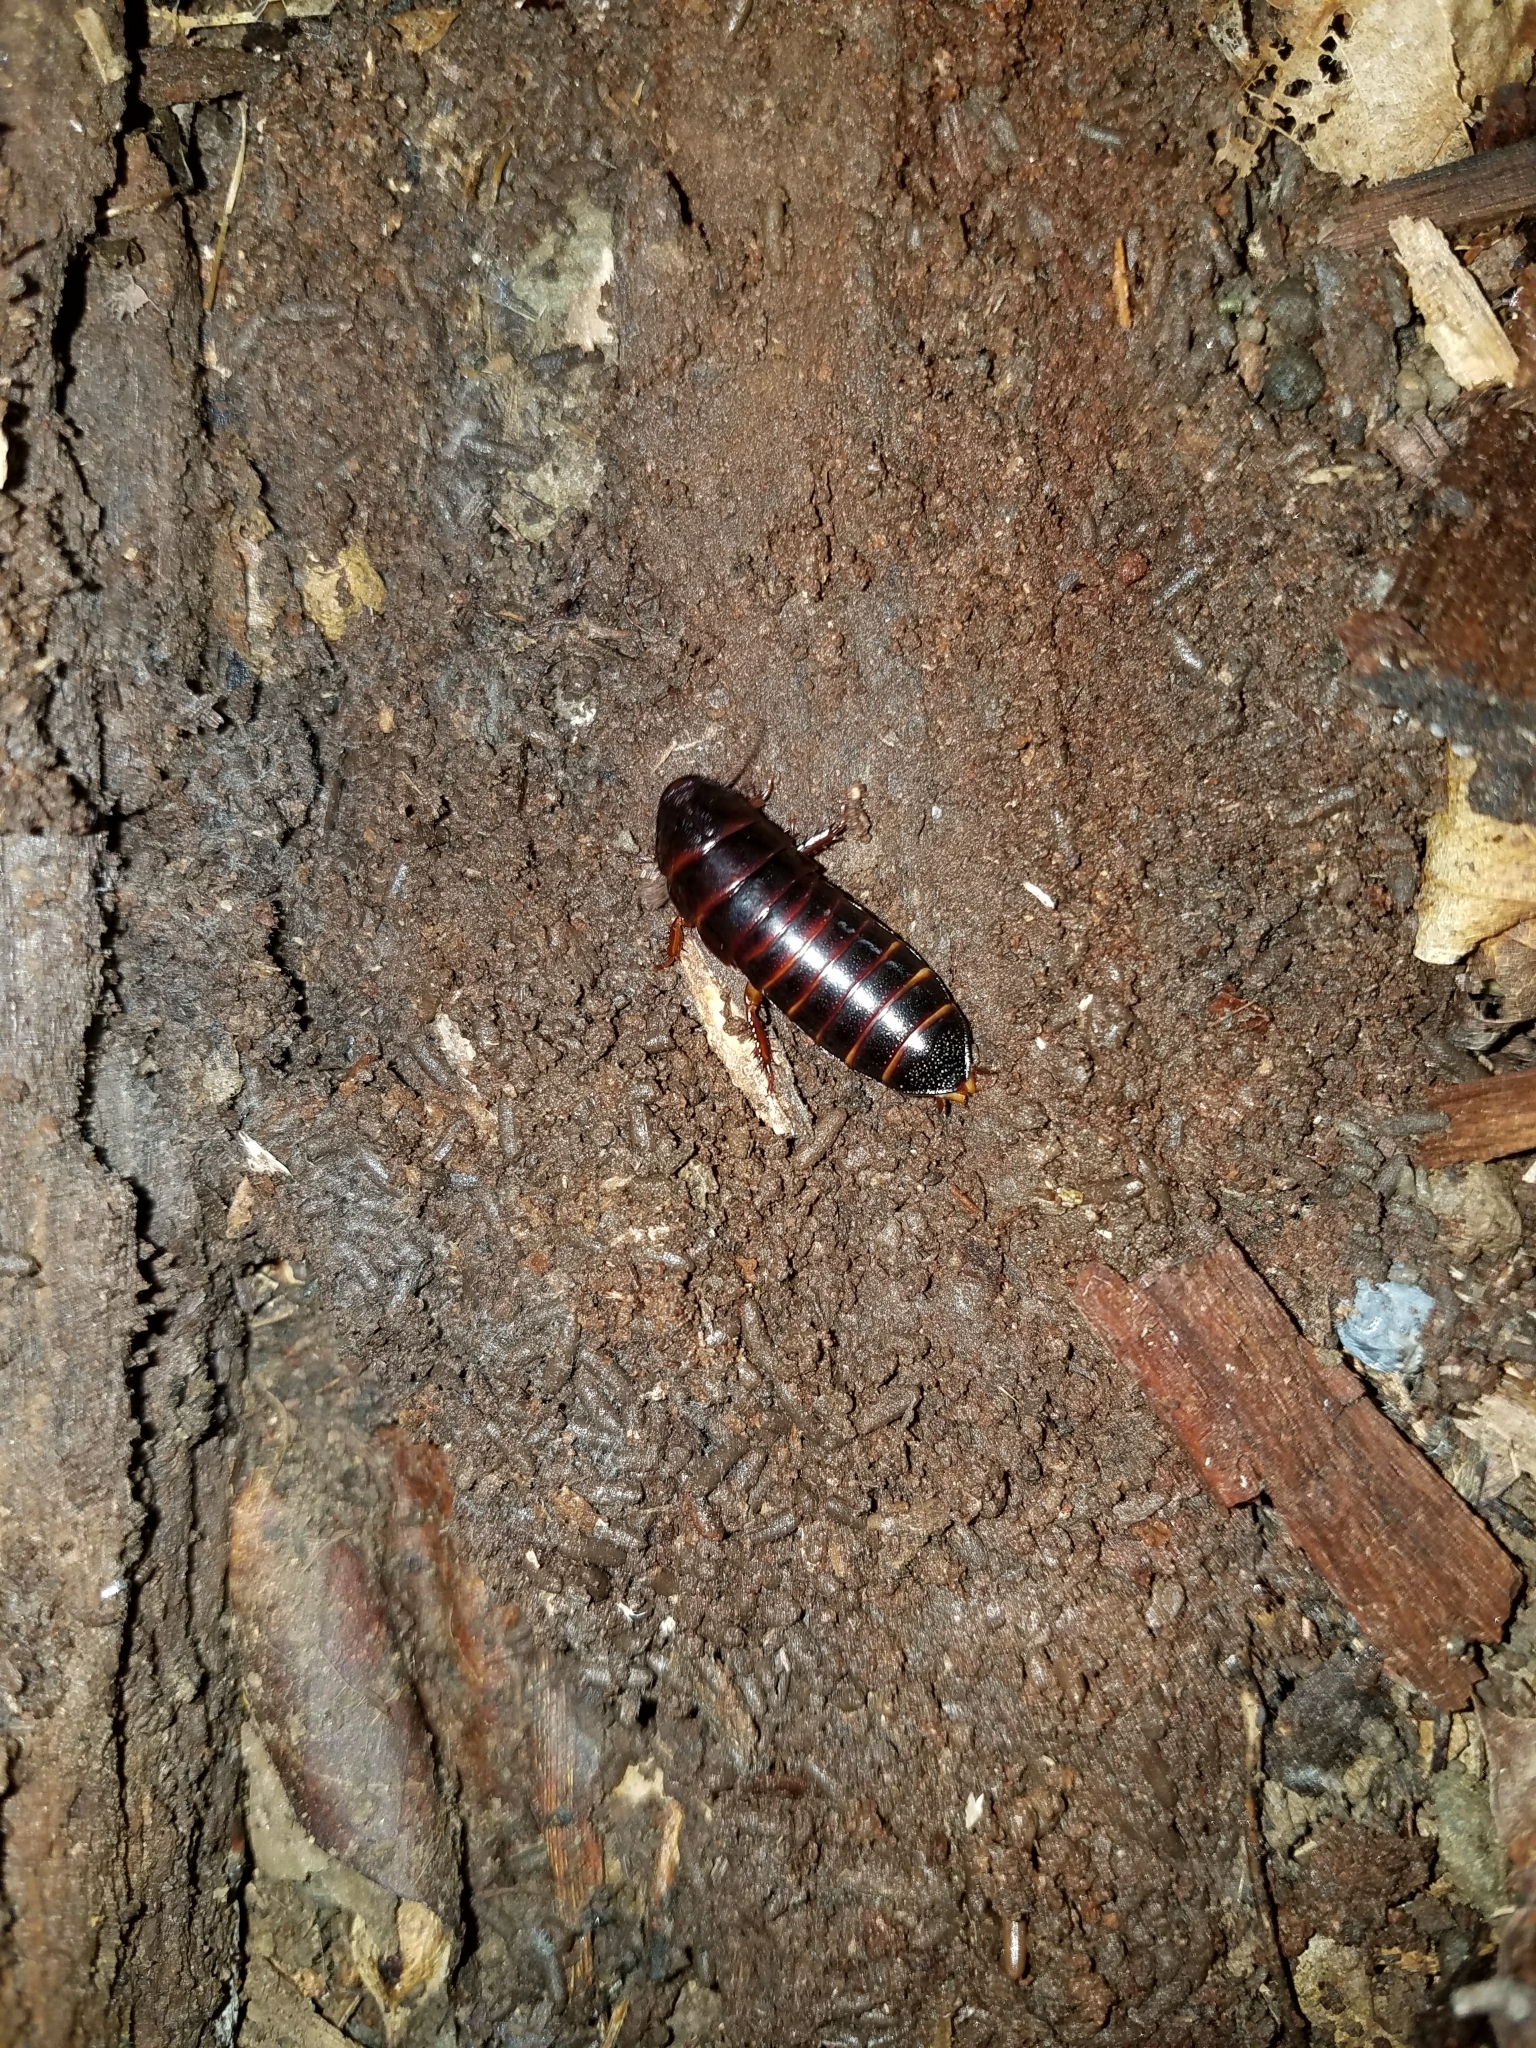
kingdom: Animalia
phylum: Arthropoda
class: Insecta
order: Blattodea
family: Cryptocercidae
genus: Cryptocercus
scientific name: Cryptocercus punctulatus
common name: Brown wingless cockroach
